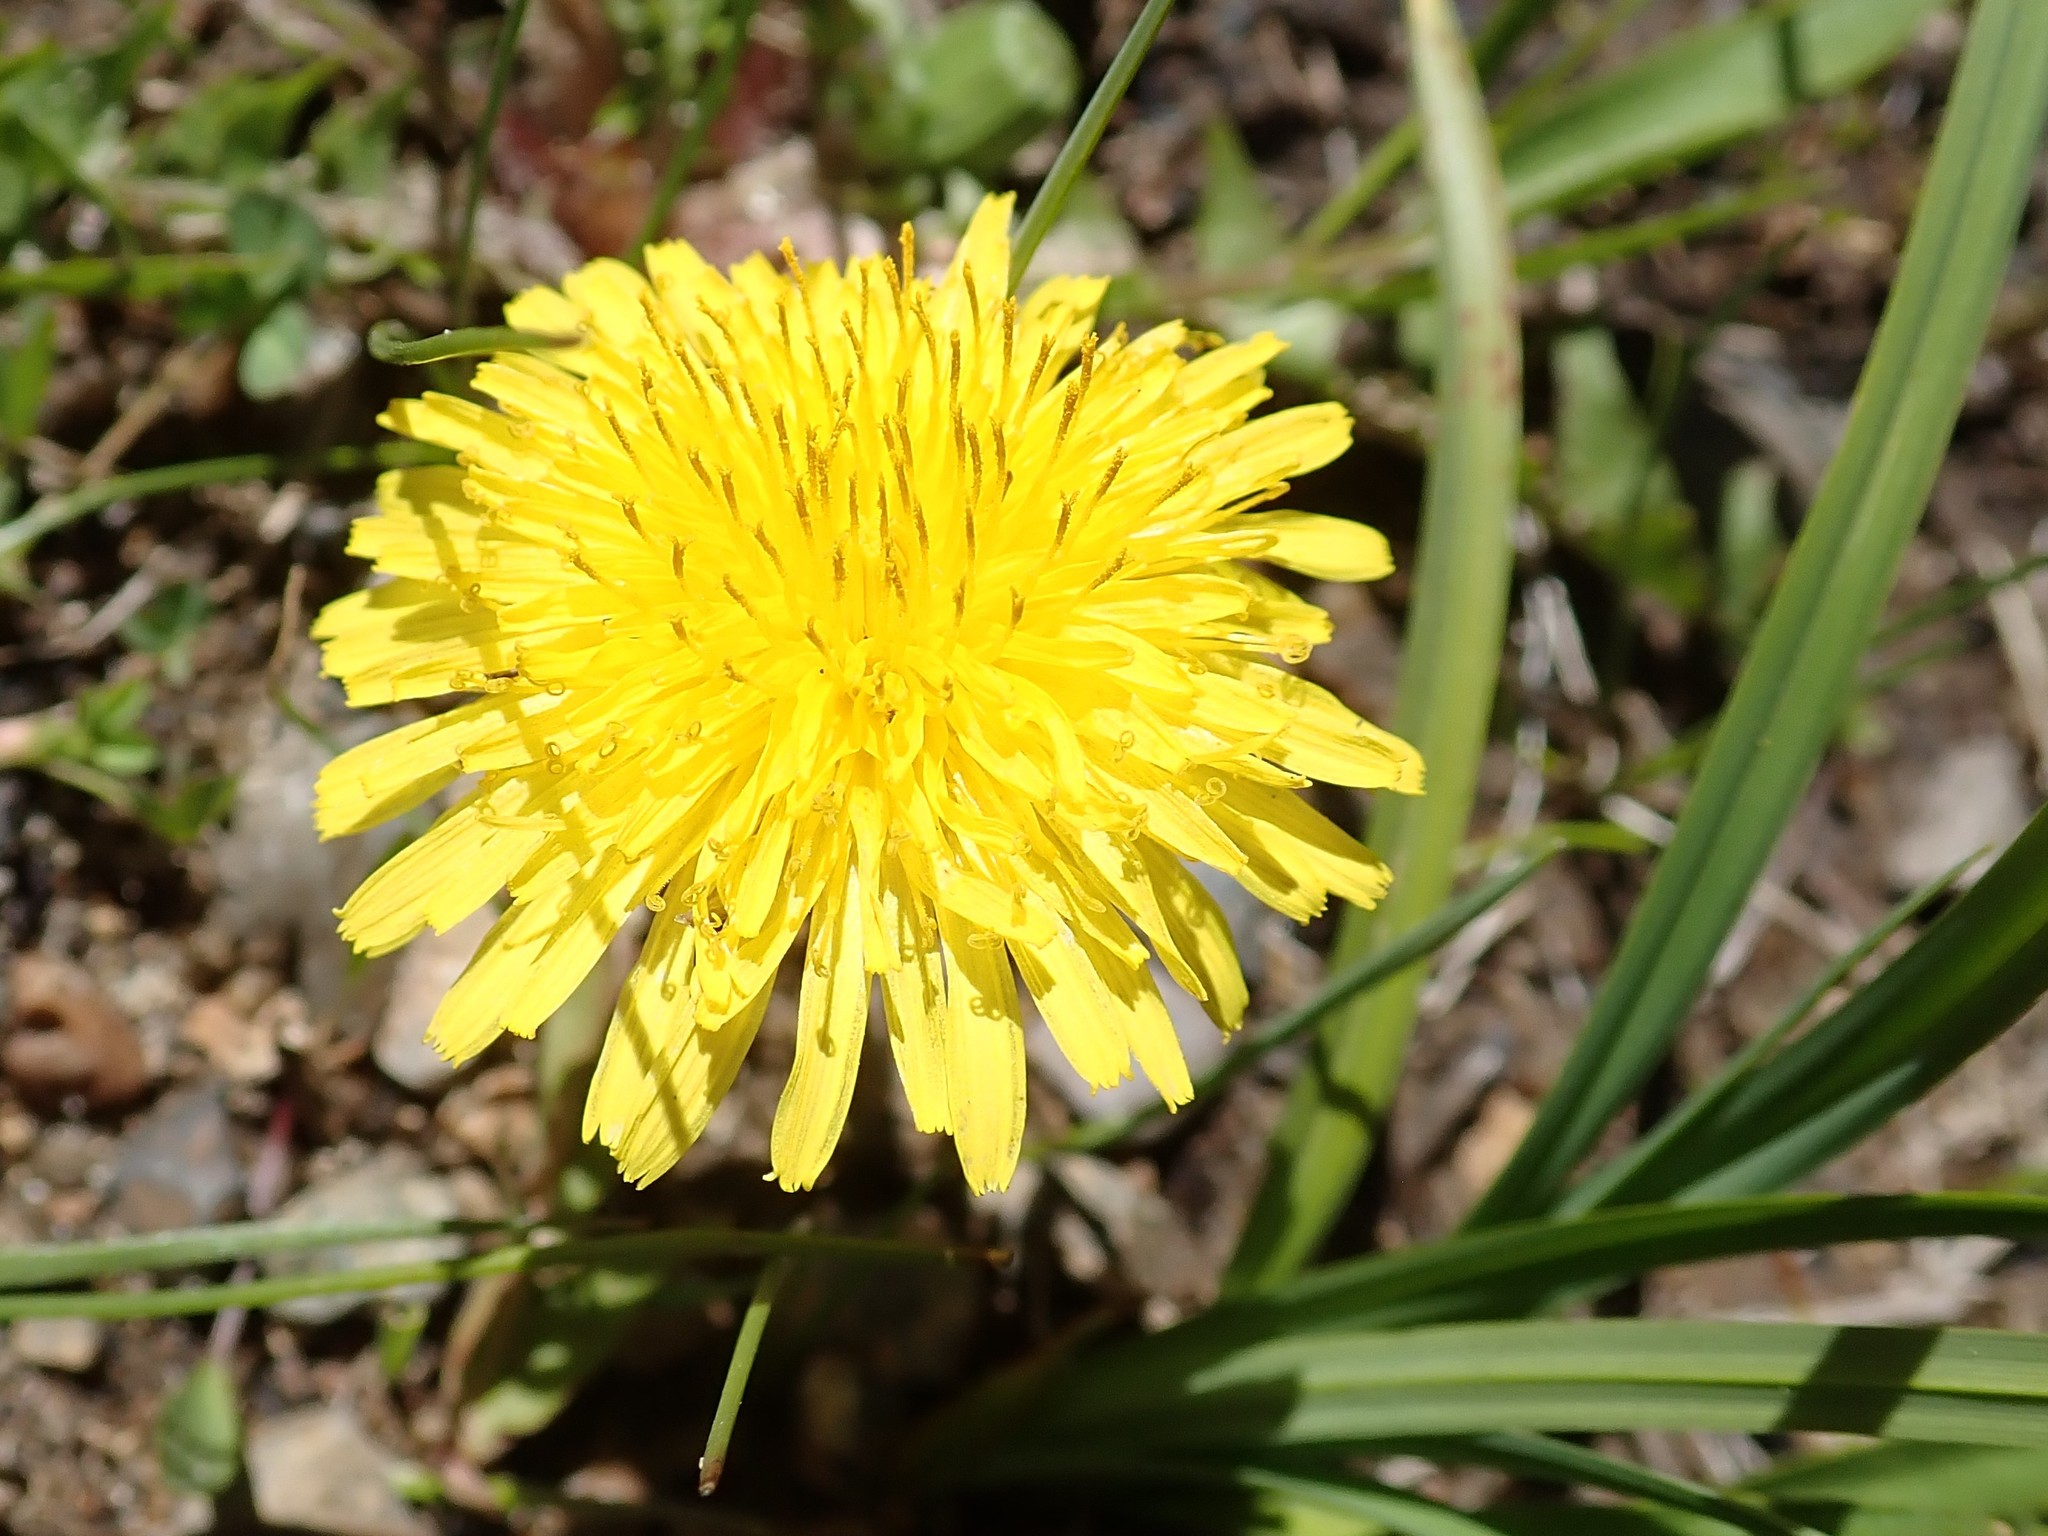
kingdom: Plantae
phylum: Tracheophyta
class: Magnoliopsida
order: Asterales
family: Asteraceae
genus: Taraxacum
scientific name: Taraxacum officinale
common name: Common dandelion
